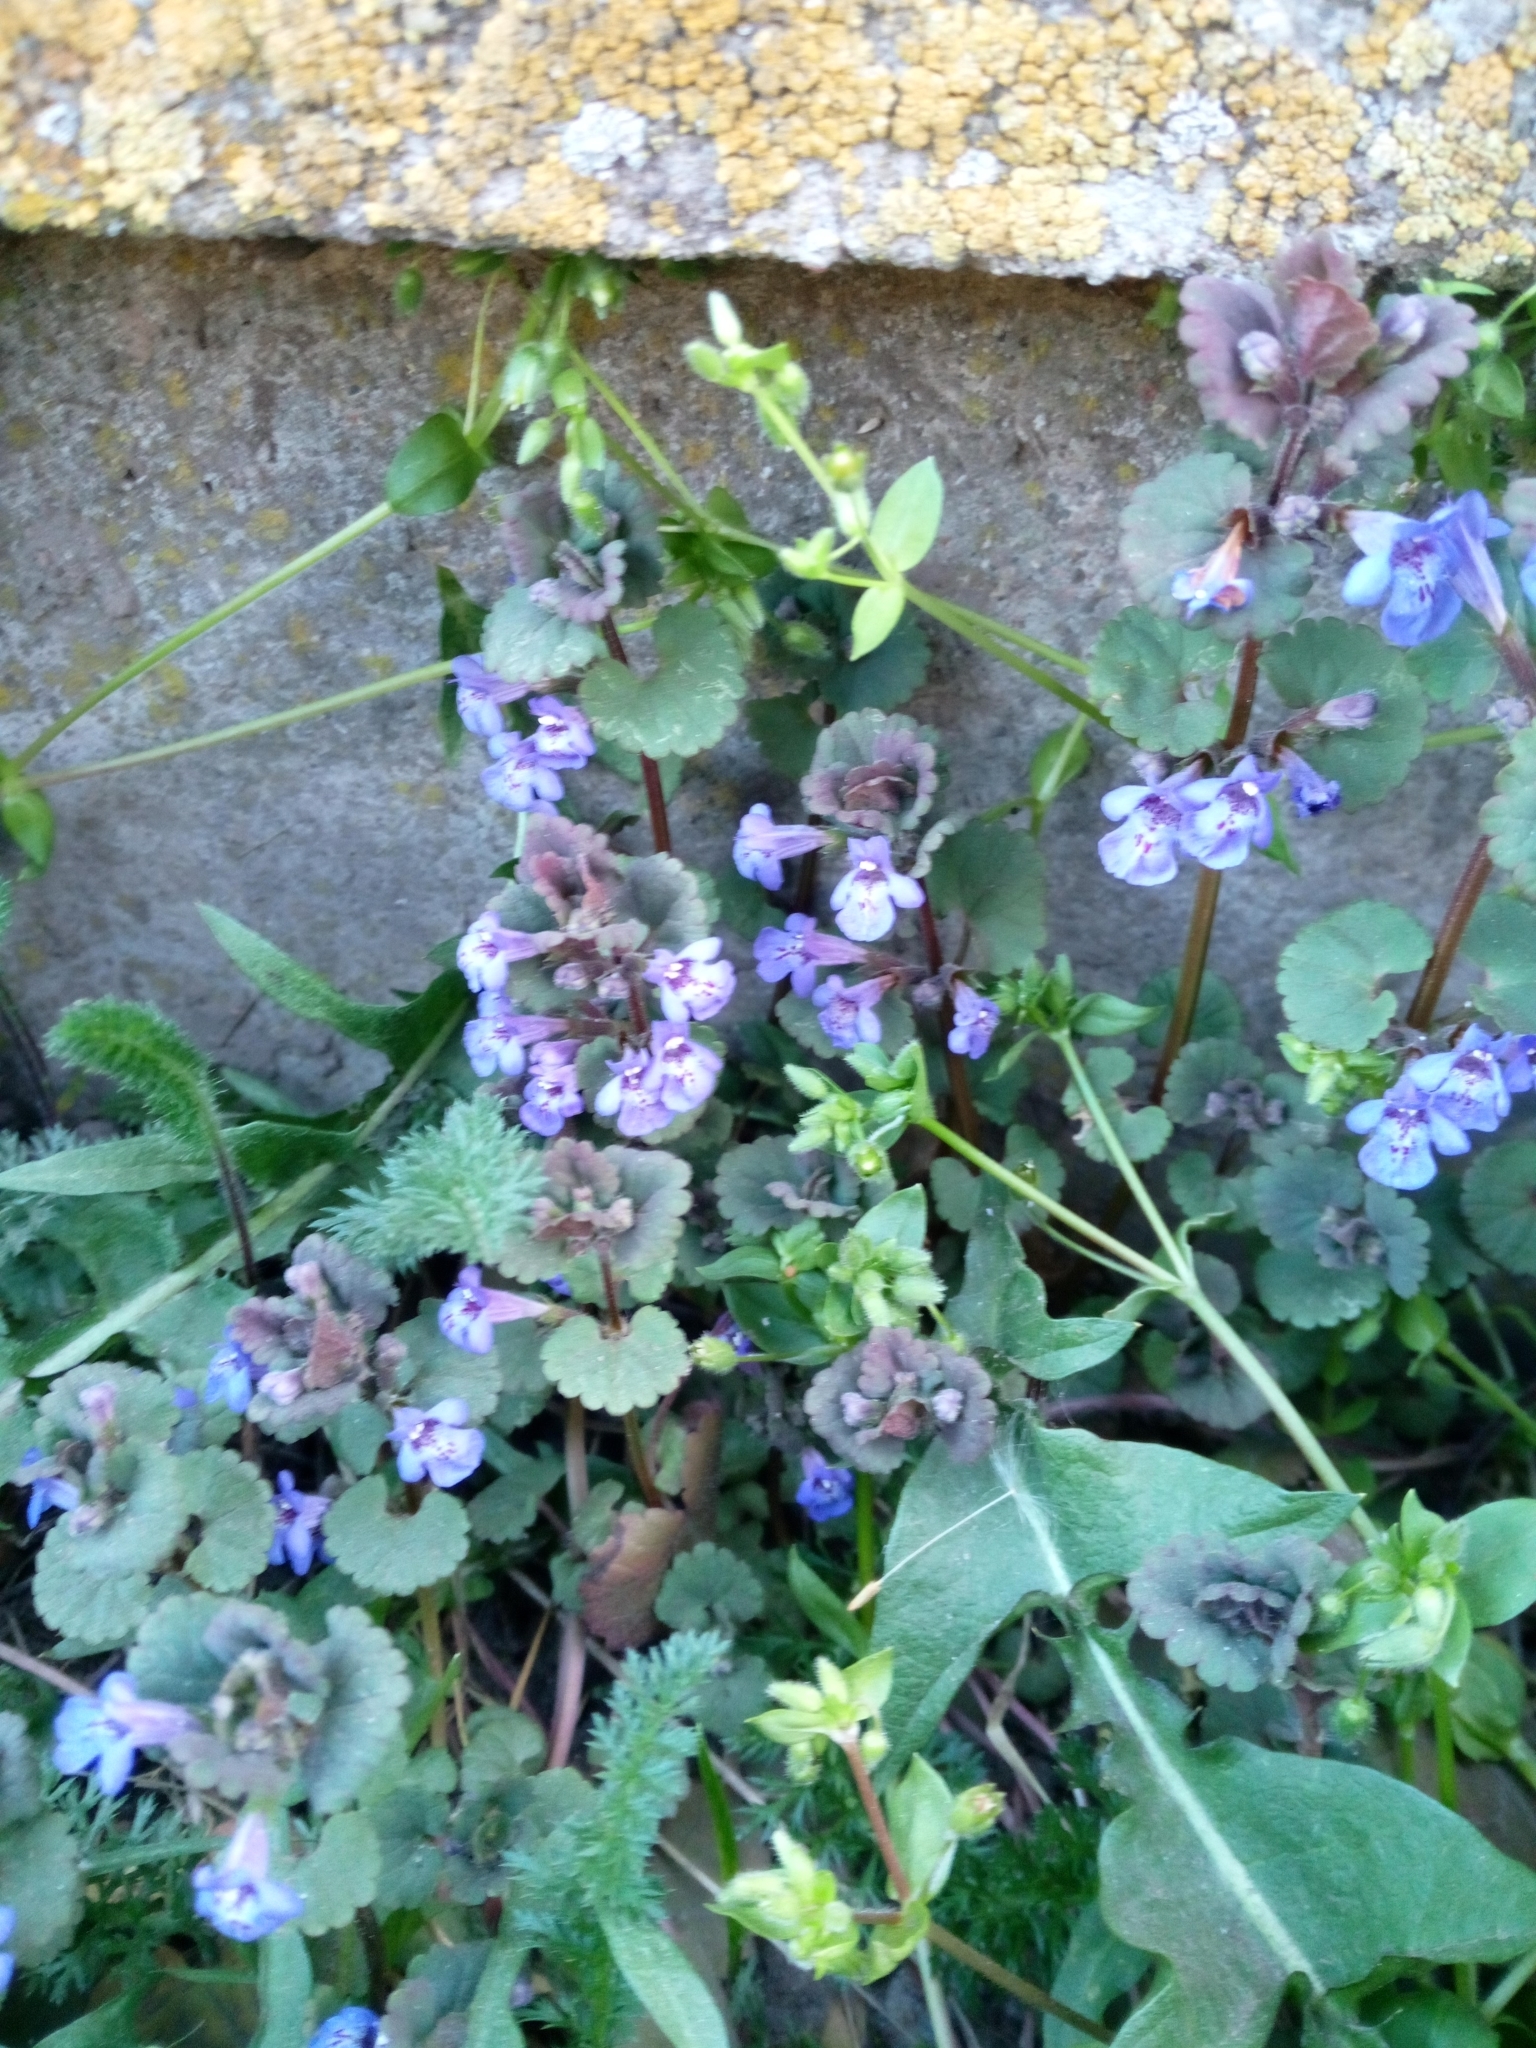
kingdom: Plantae
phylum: Tracheophyta
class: Magnoliopsida
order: Lamiales
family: Lamiaceae
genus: Glechoma
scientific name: Glechoma hederacea
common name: Ground ivy
